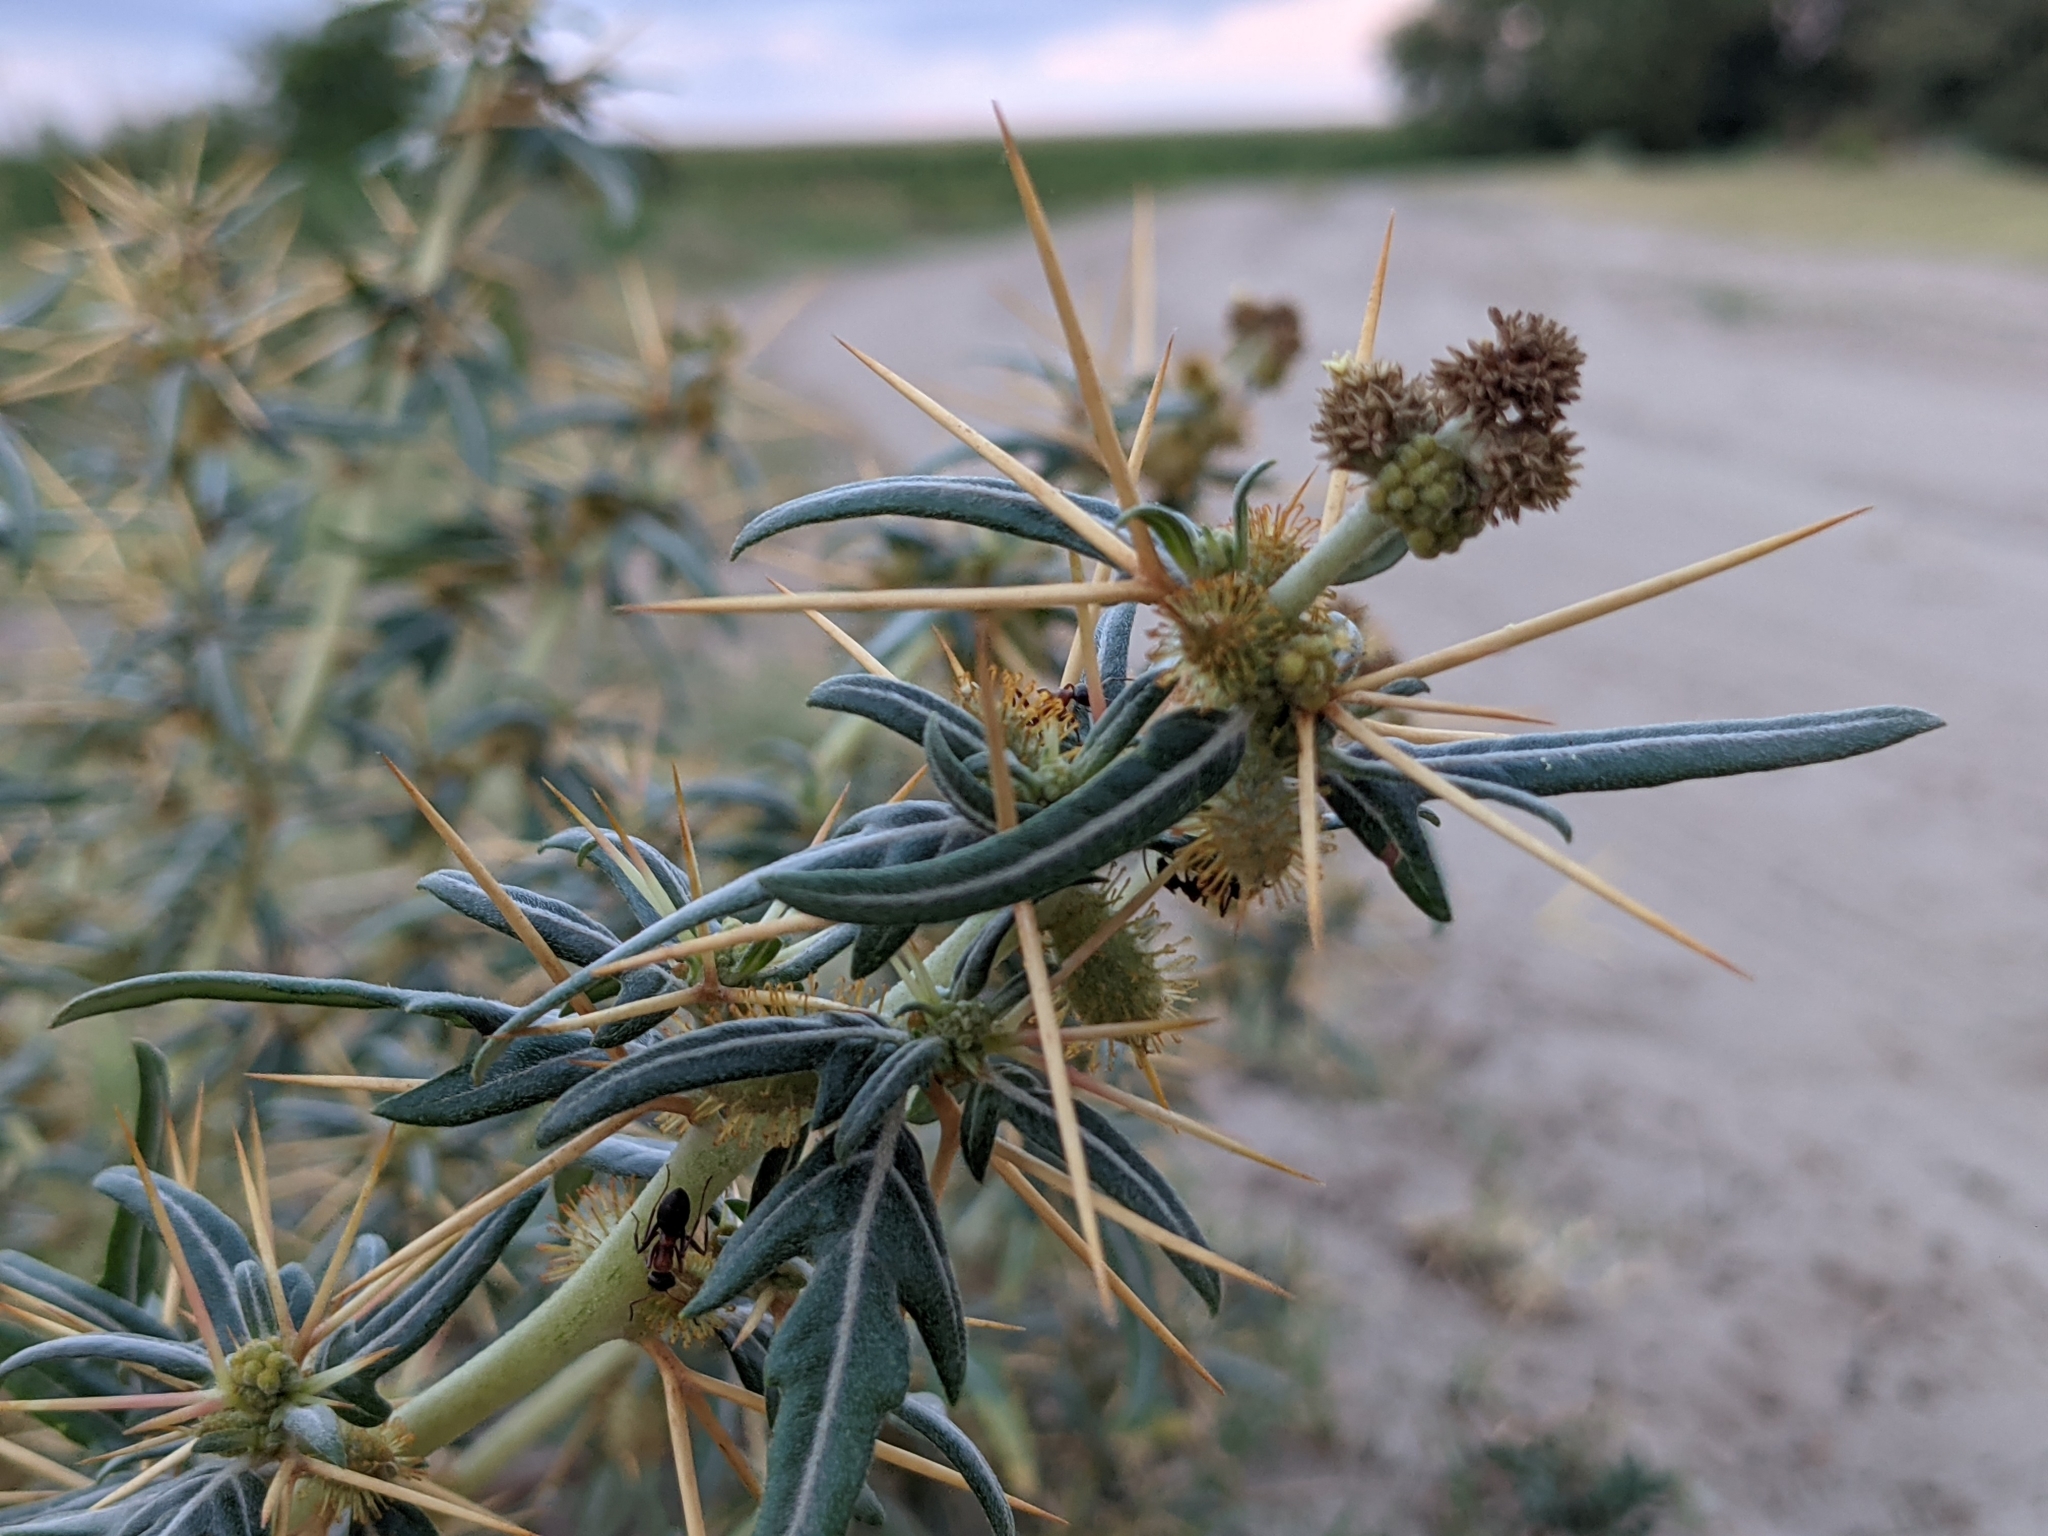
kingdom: Plantae
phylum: Tracheophyta
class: Magnoliopsida
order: Asterales
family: Asteraceae
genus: Xanthium
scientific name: Xanthium spinosum
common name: Spiny cocklebur
